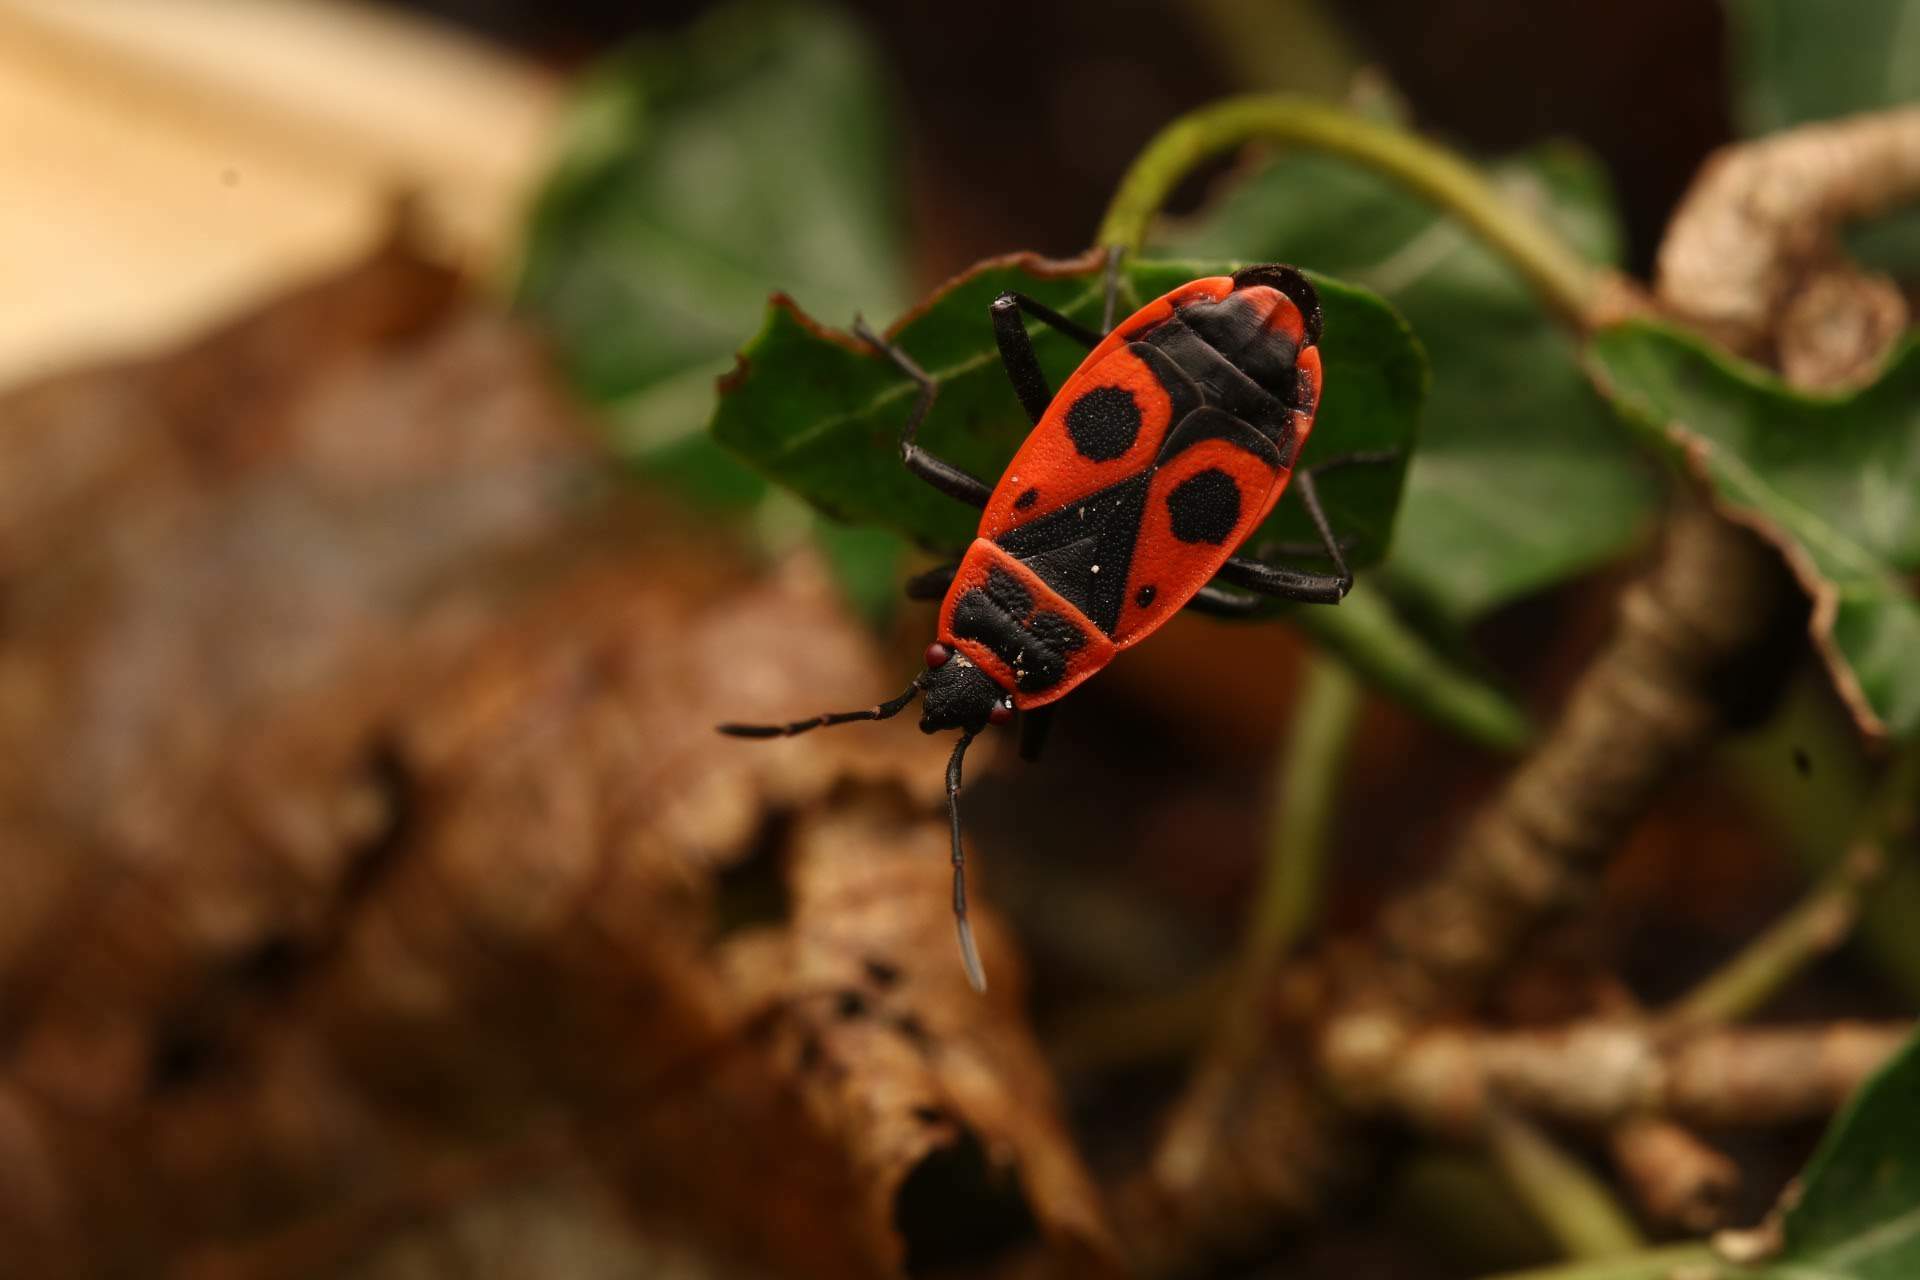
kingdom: Animalia
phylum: Arthropoda
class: Insecta
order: Hemiptera
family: Pyrrhocoridae
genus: Pyrrhocoris
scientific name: Pyrrhocoris apterus
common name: Firebug
